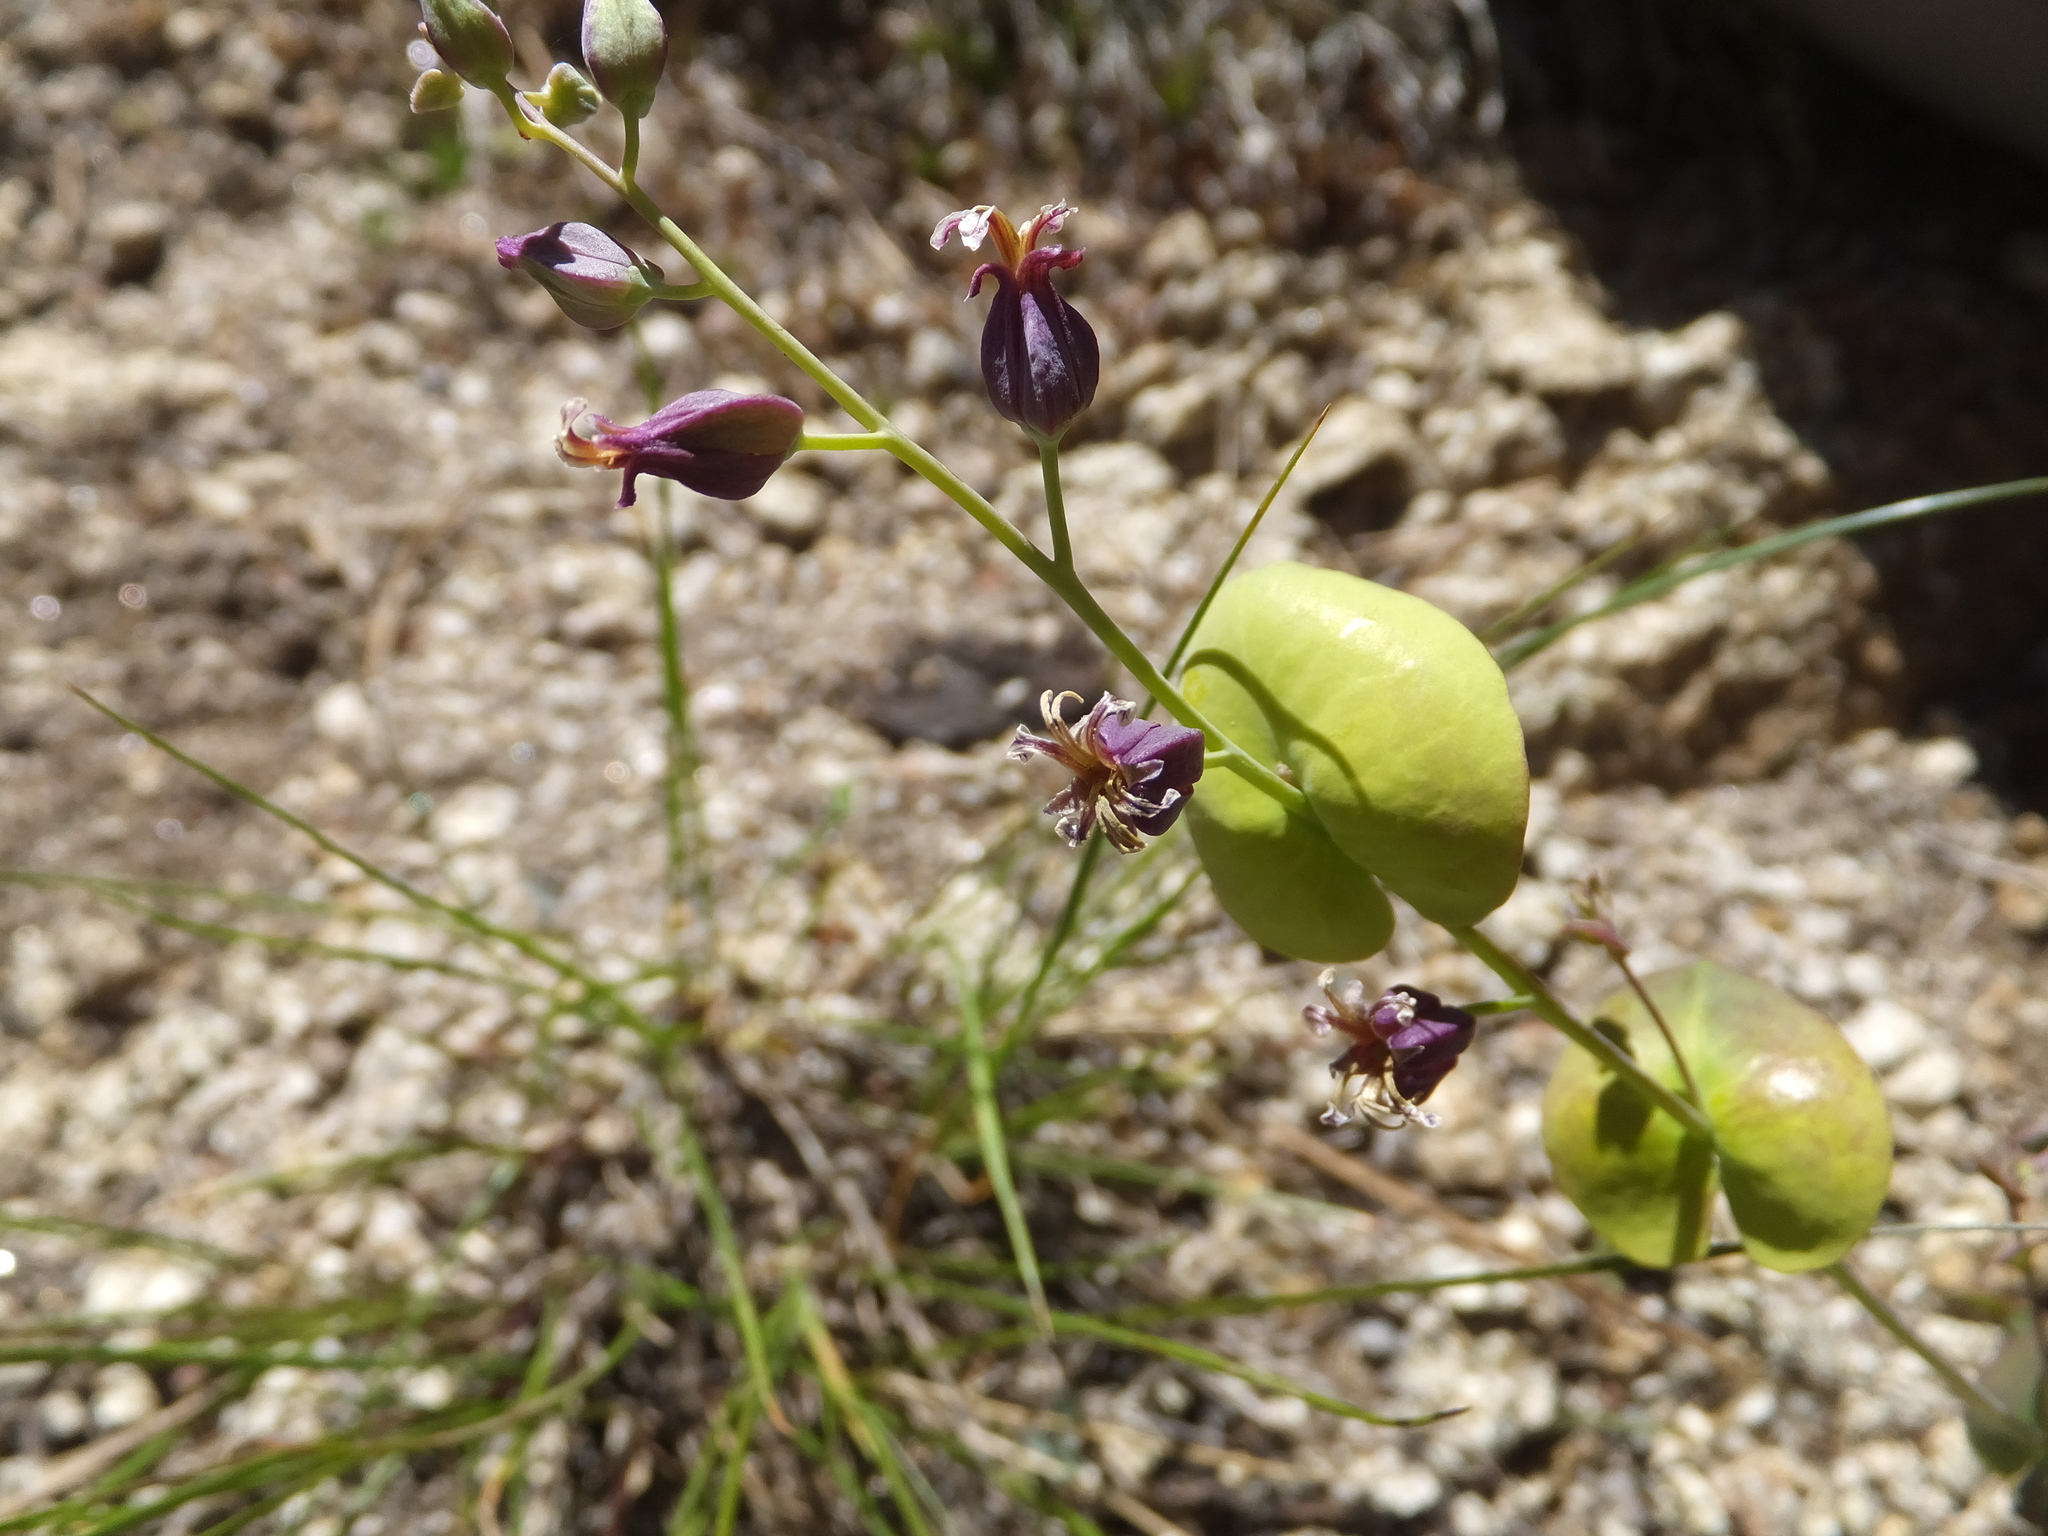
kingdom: Plantae
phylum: Tracheophyta
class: Magnoliopsida
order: Brassicales
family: Brassicaceae
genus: Streptanthus
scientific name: Streptanthus tortuosus
